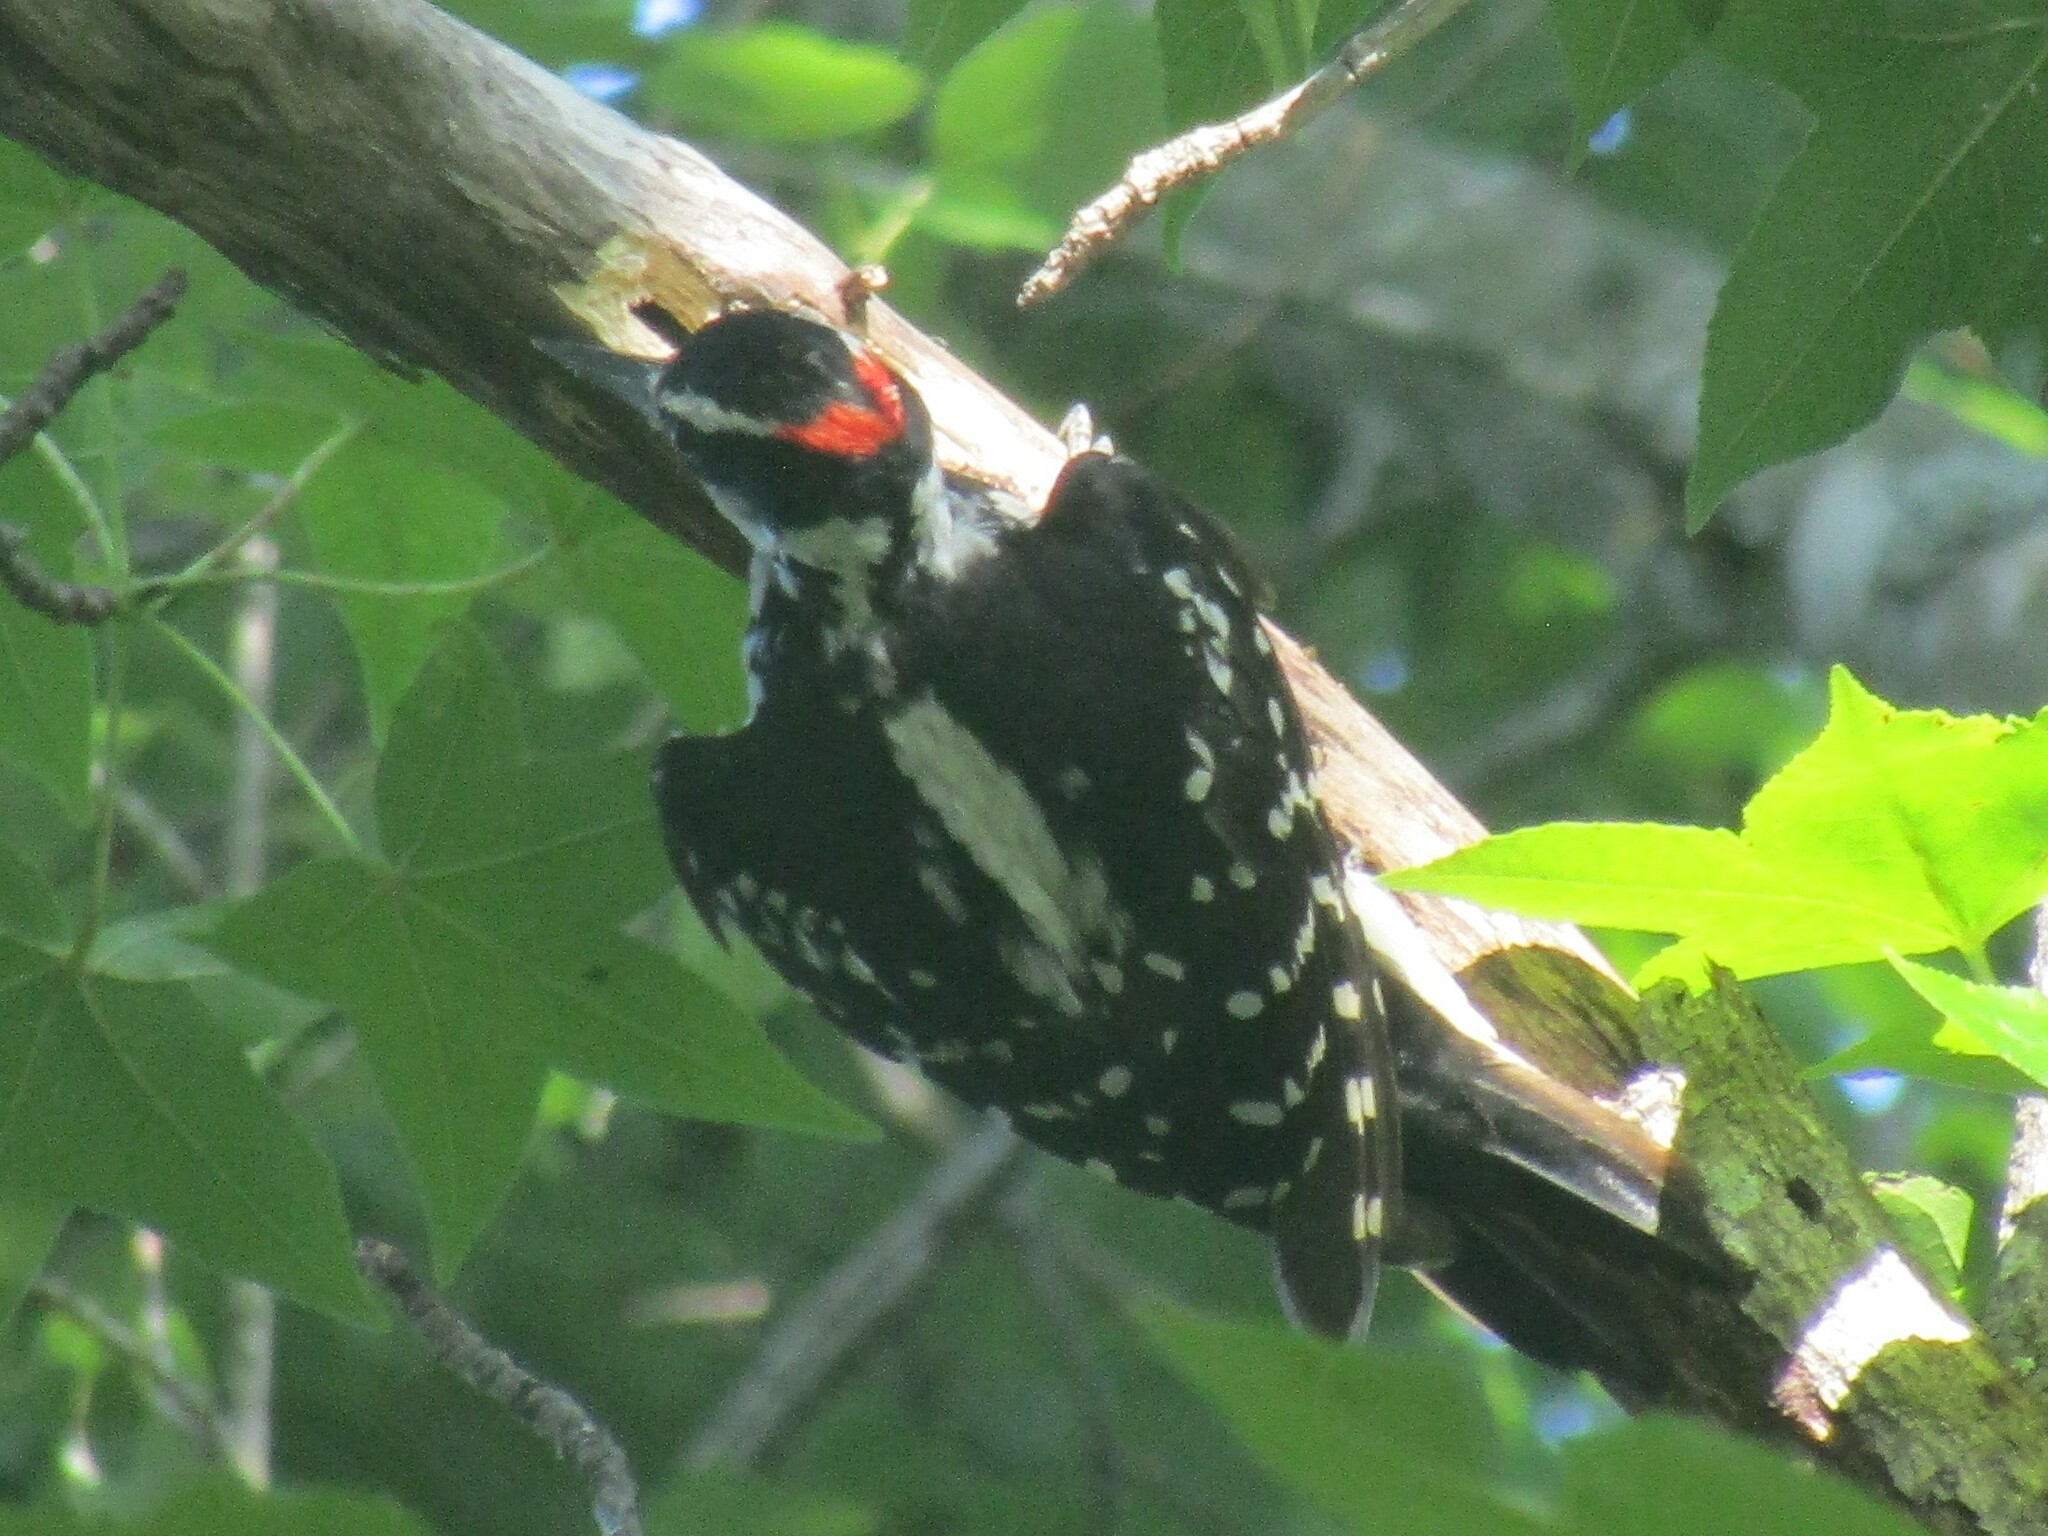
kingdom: Animalia
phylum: Chordata
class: Aves
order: Piciformes
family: Picidae
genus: Leuconotopicus
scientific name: Leuconotopicus villosus
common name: Hairy woodpecker
